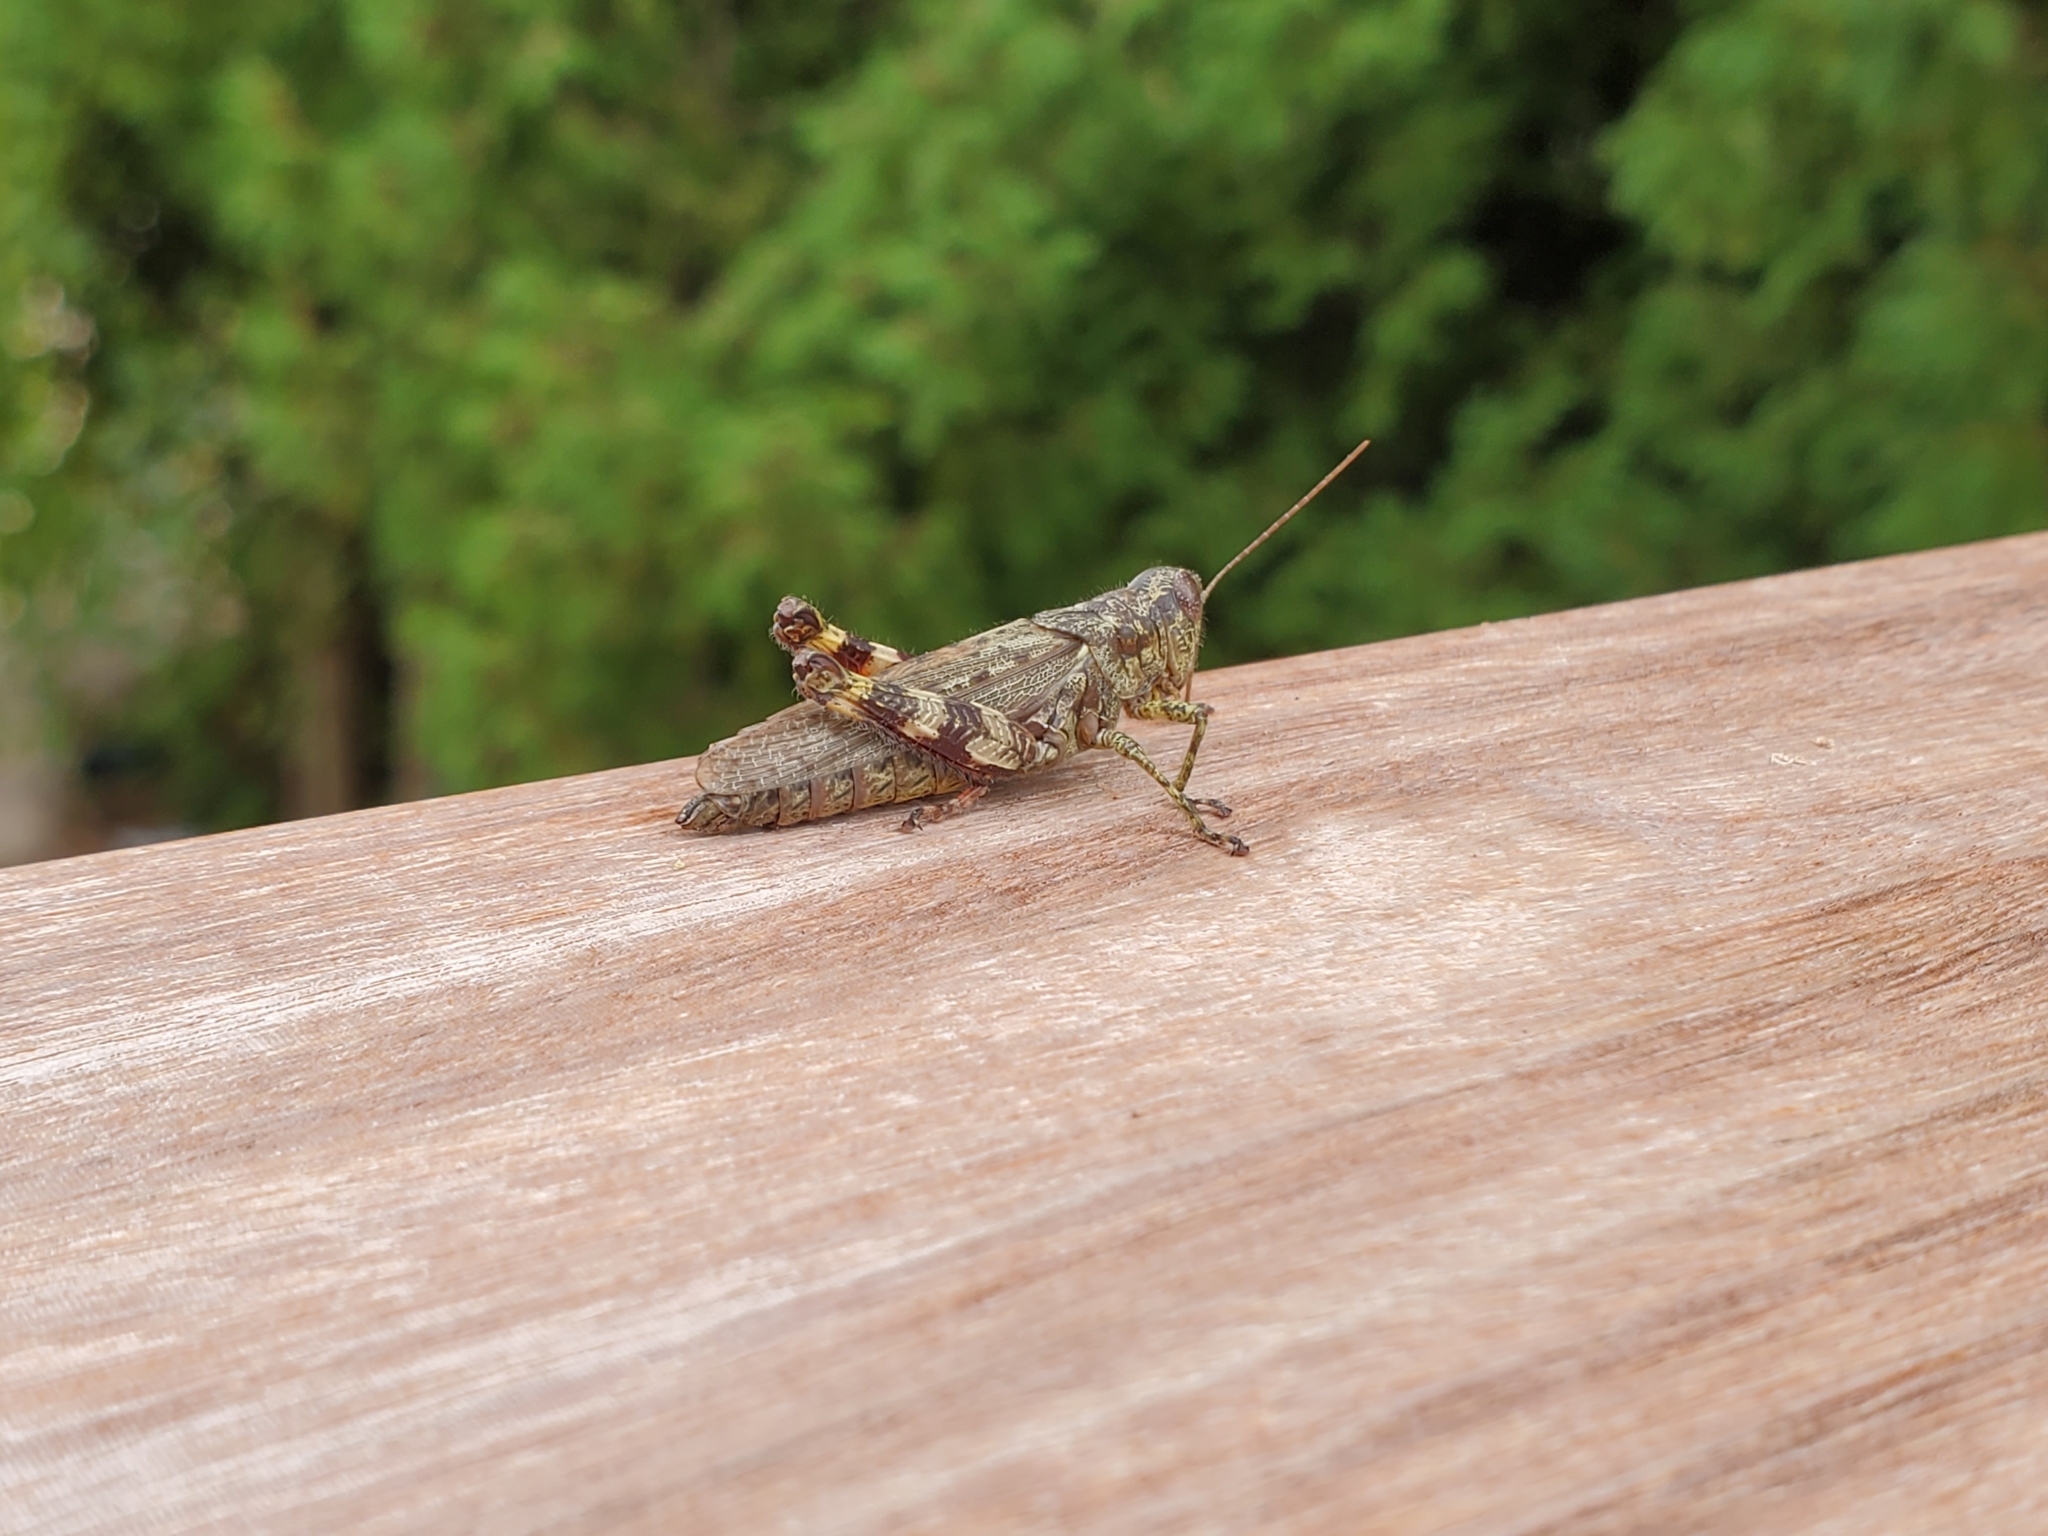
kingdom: Animalia
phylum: Arthropoda
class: Insecta
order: Orthoptera
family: Acrididae
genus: Melanoplus
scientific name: Melanoplus punctulatus
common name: Pine-tree spur-throat grasshopper
